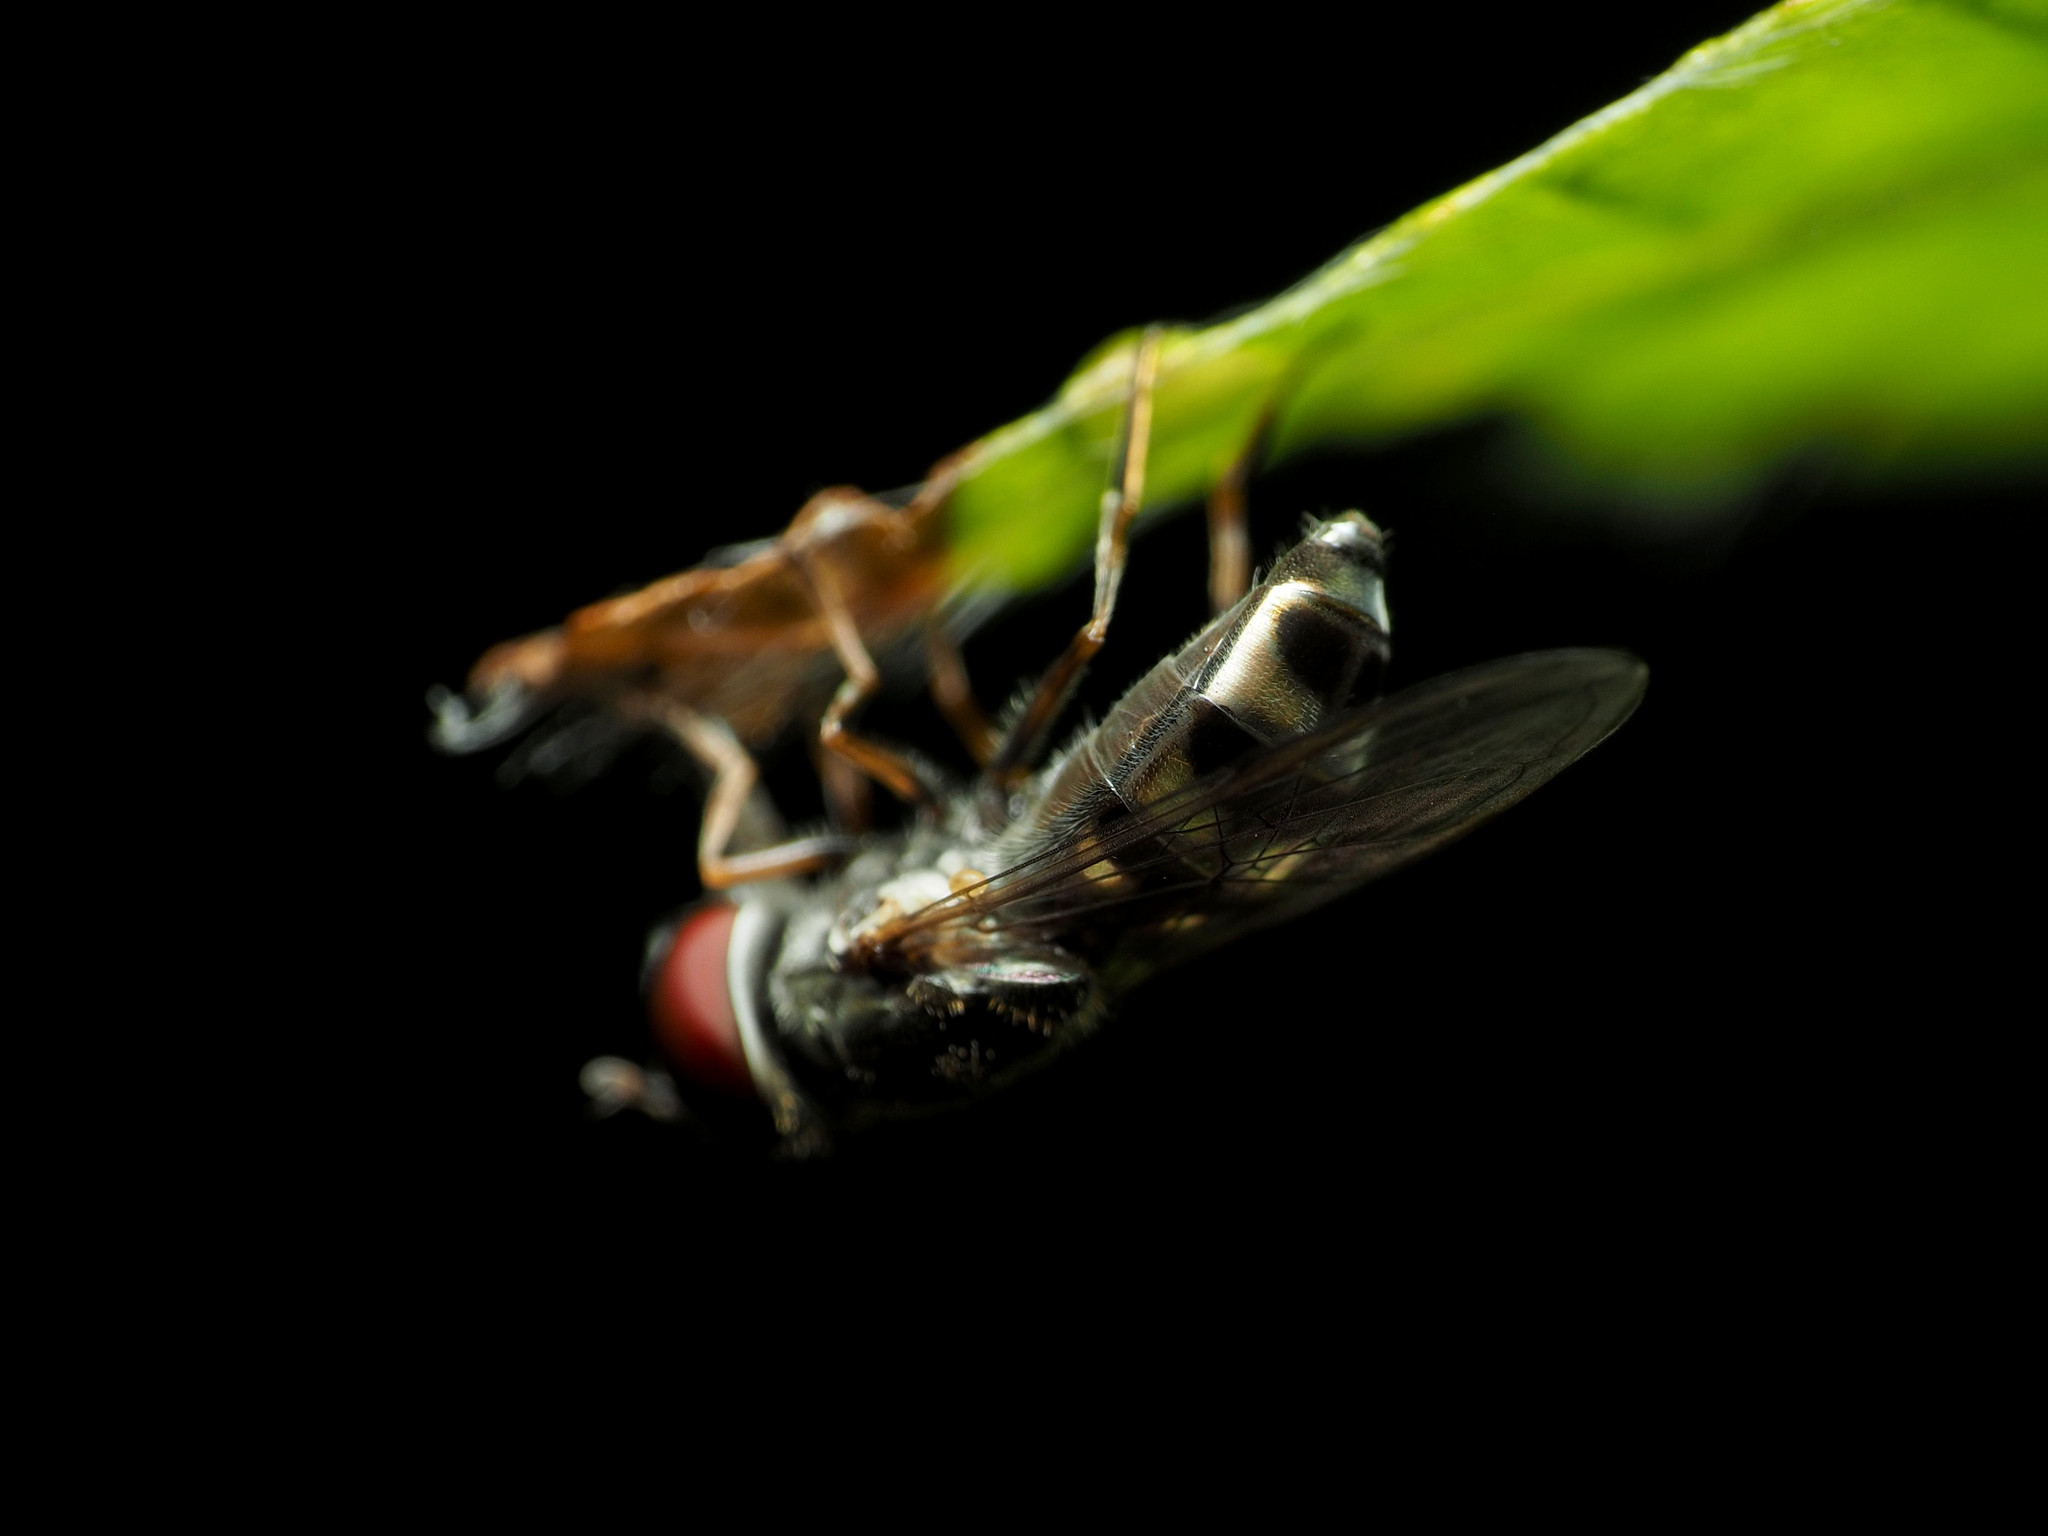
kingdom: Animalia
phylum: Arthropoda
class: Insecta
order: Diptera
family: Syrphidae
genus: Platycheirus
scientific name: Platycheirus obscurus
